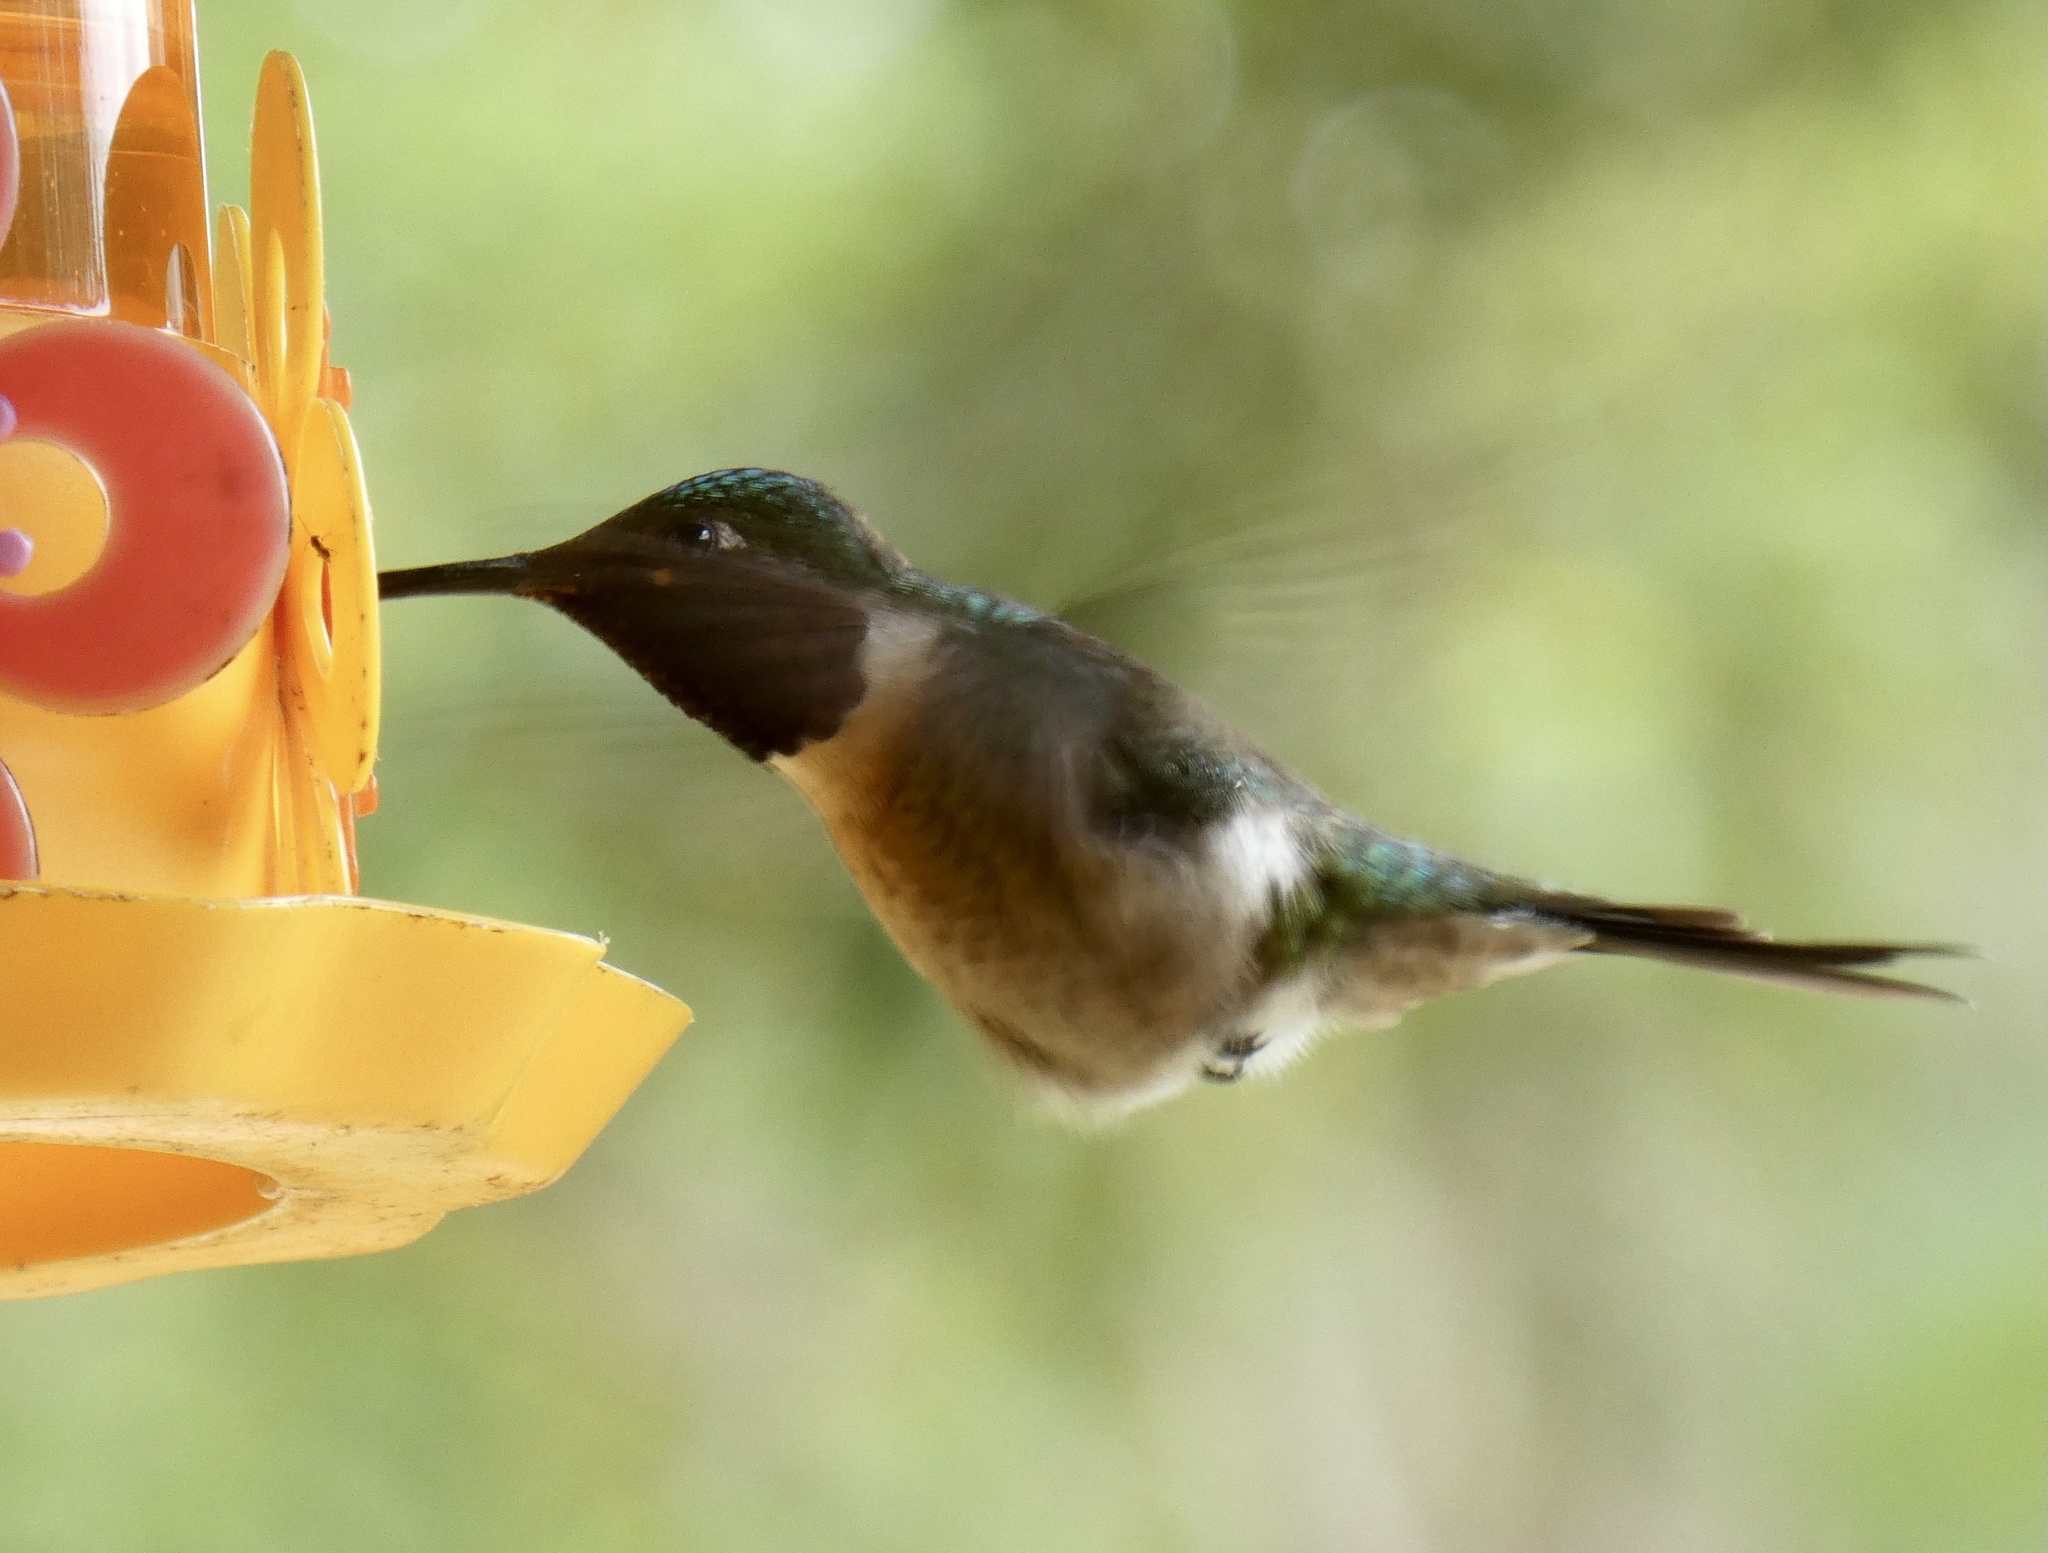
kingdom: Animalia
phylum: Chordata
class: Aves
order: Apodiformes
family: Trochilidae
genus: Calliphlox
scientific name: Calliphlox amethystina
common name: Amethyst woodstar
